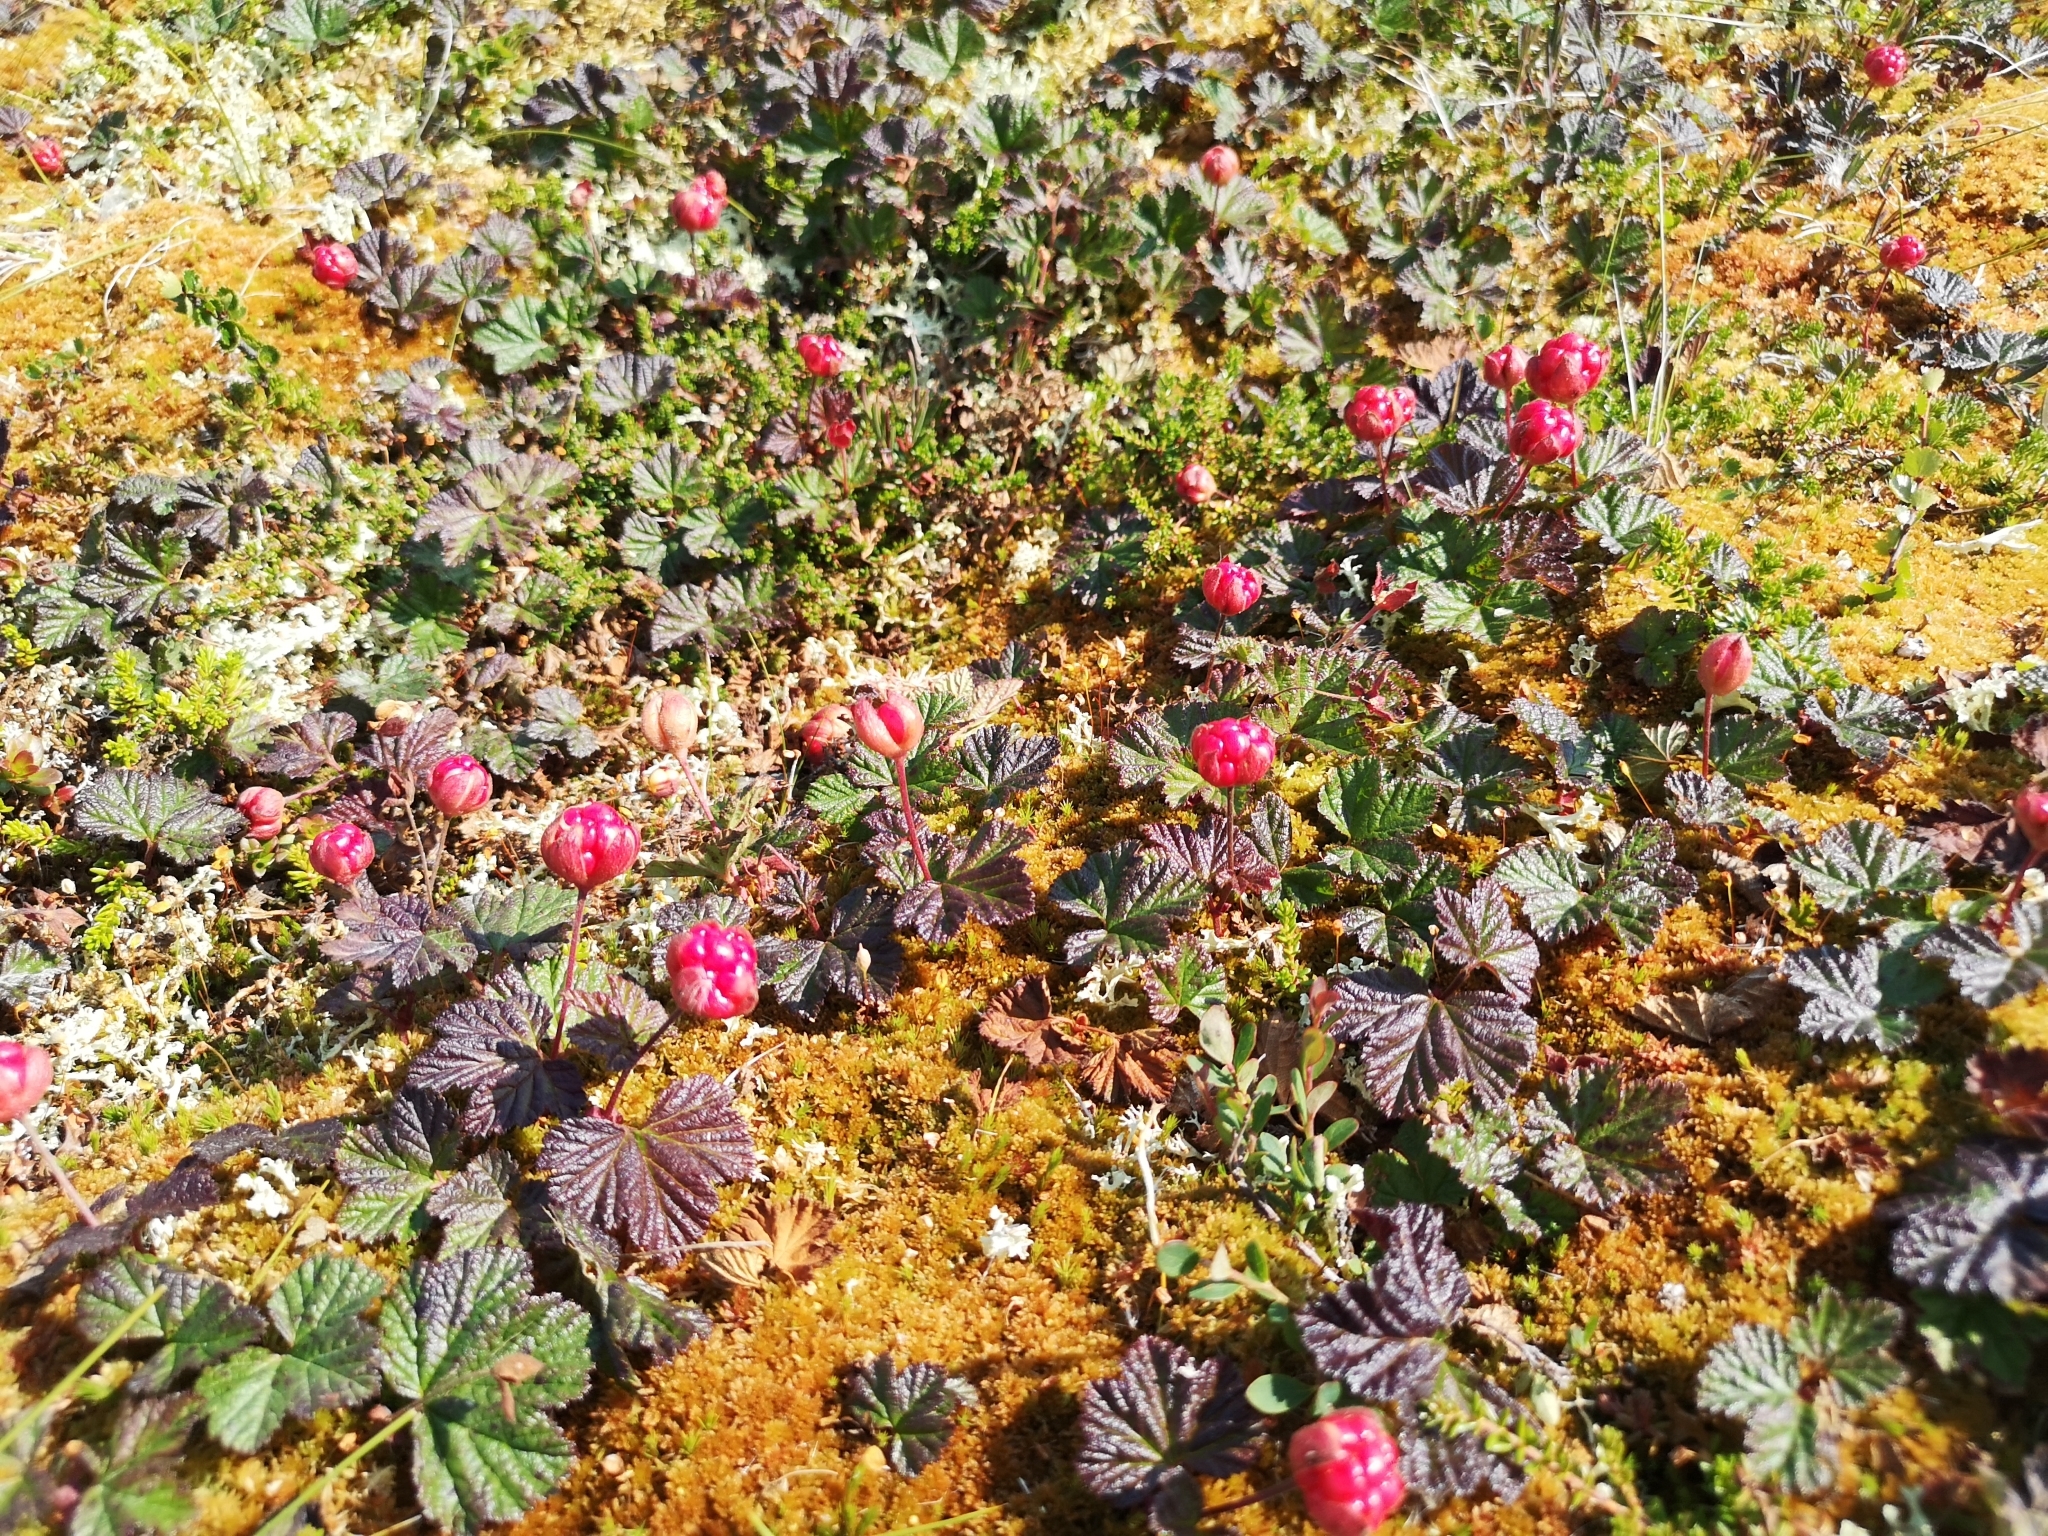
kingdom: Plantae
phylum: Tracheophyta
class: Magnoliopsida
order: Rosales
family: Rosaceae
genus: Rubus
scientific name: Rubus chamaemorus
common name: Cloudberry
